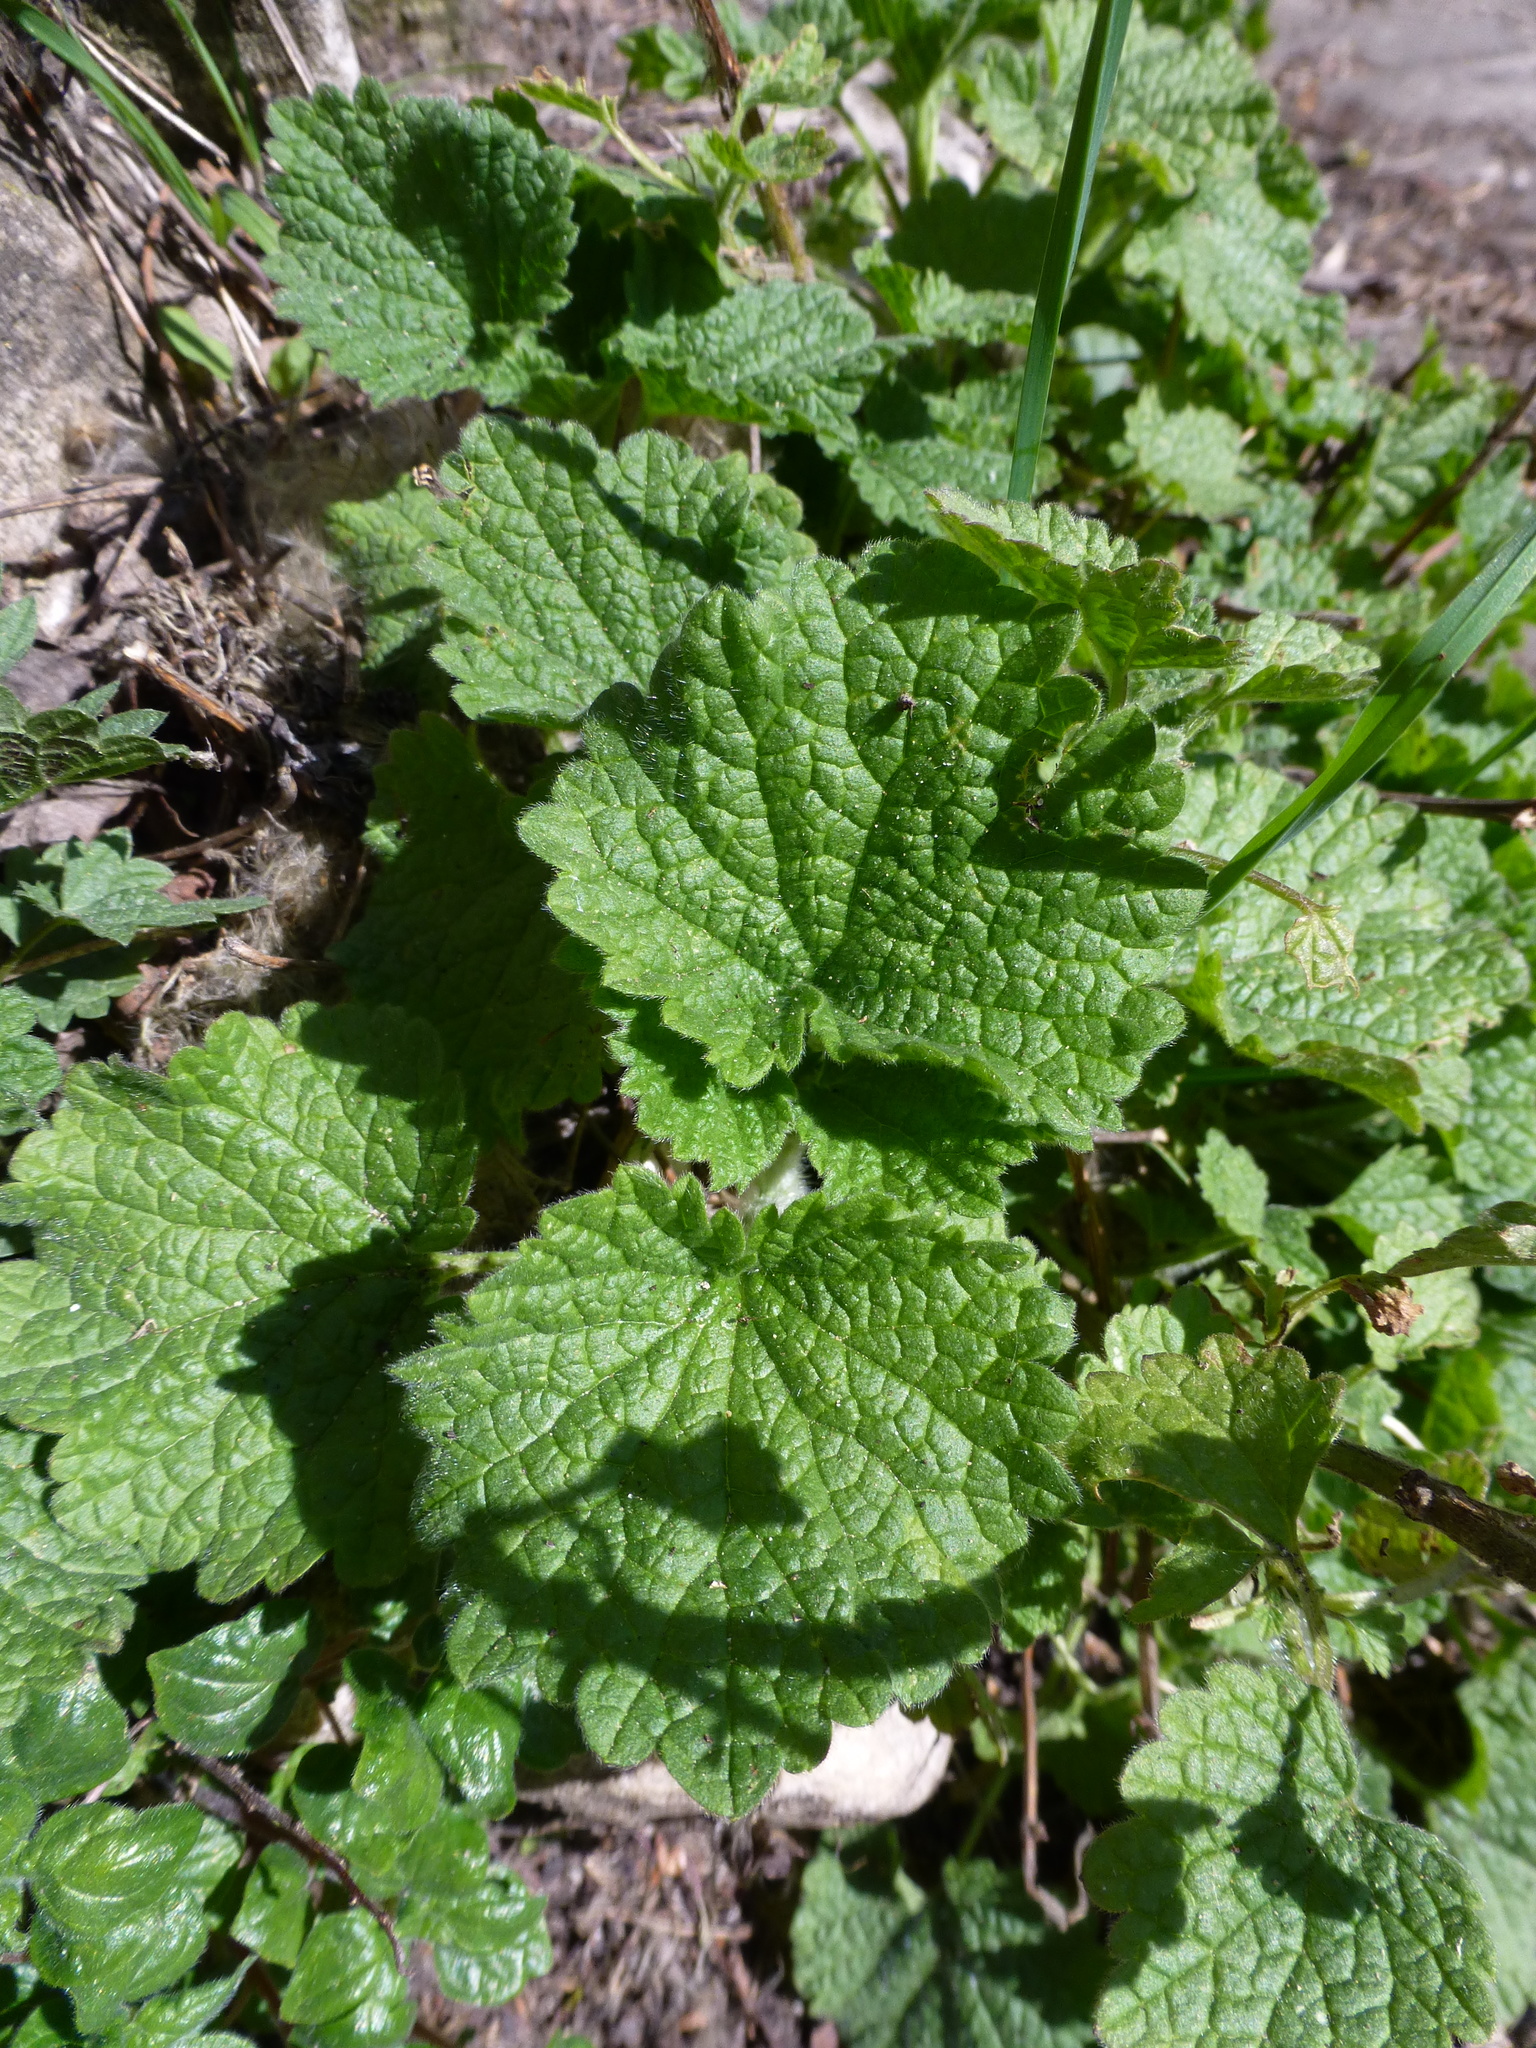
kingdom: Plantae
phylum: Tracheophyta
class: Magnoliopsida
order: Lamiales
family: Lamiaceae
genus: Nepeta
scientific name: Nepeta cataria
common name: Catnip
